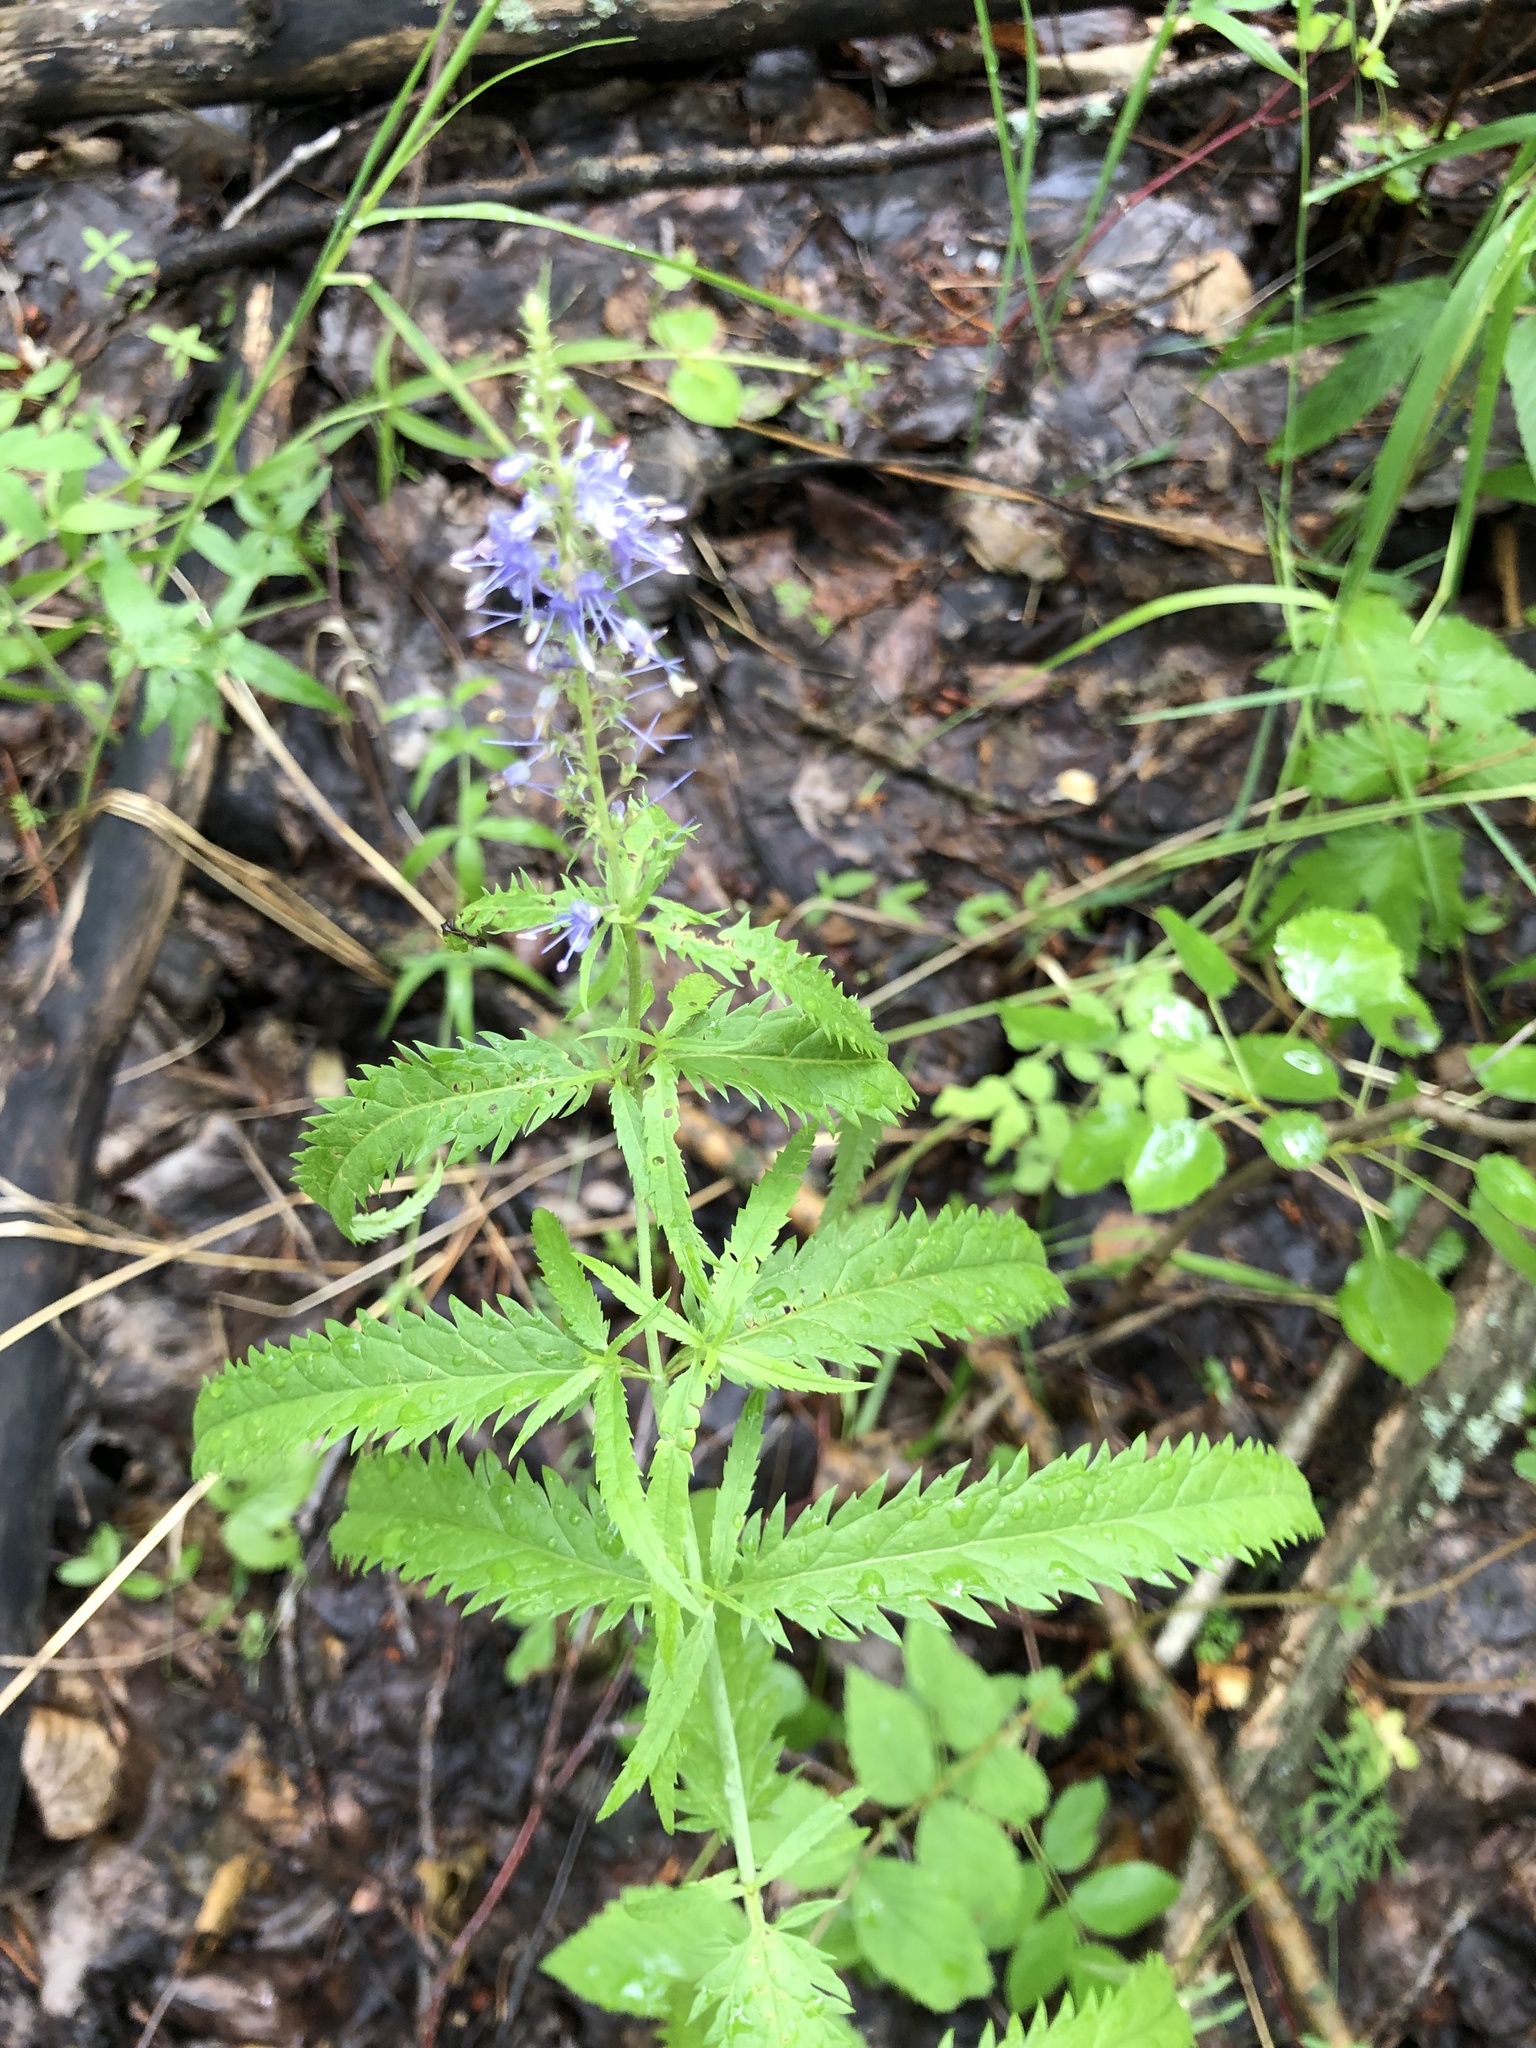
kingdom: Plantae
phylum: Tracheophyta
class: Magnoliopsida
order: Lamiales
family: Plantaginaceae
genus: Veronica
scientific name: Veronica longifolia
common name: Garden speedwell
